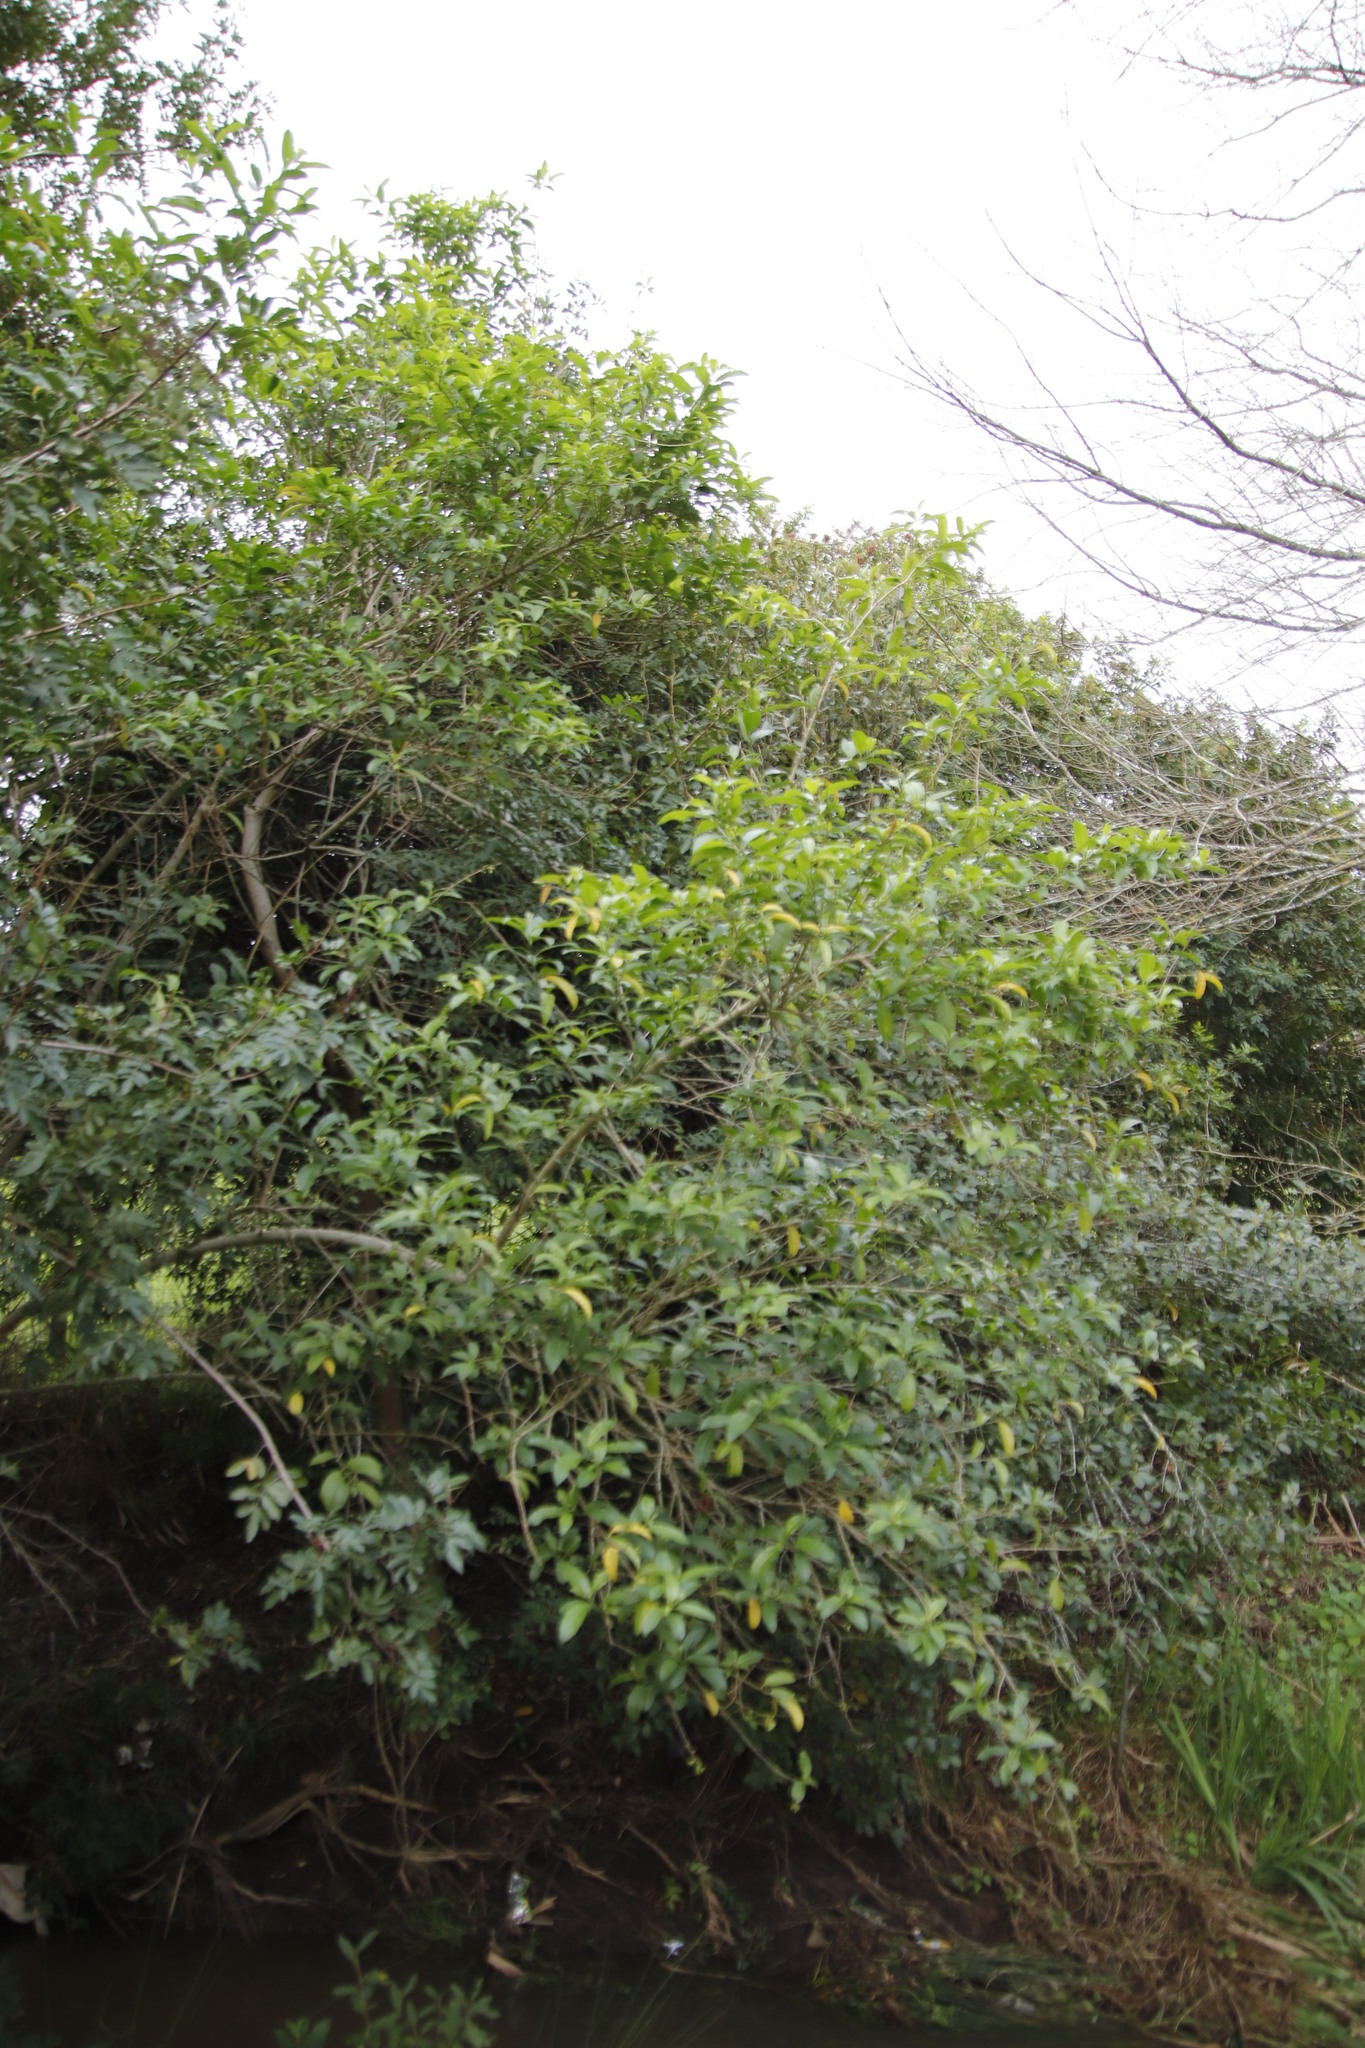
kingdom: Plantae
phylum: Tracheophyta
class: Magnoliopsida
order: Solanales
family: Solanaceae
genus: Cestrum
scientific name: Cestrum laevigatum
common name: Inkberry
